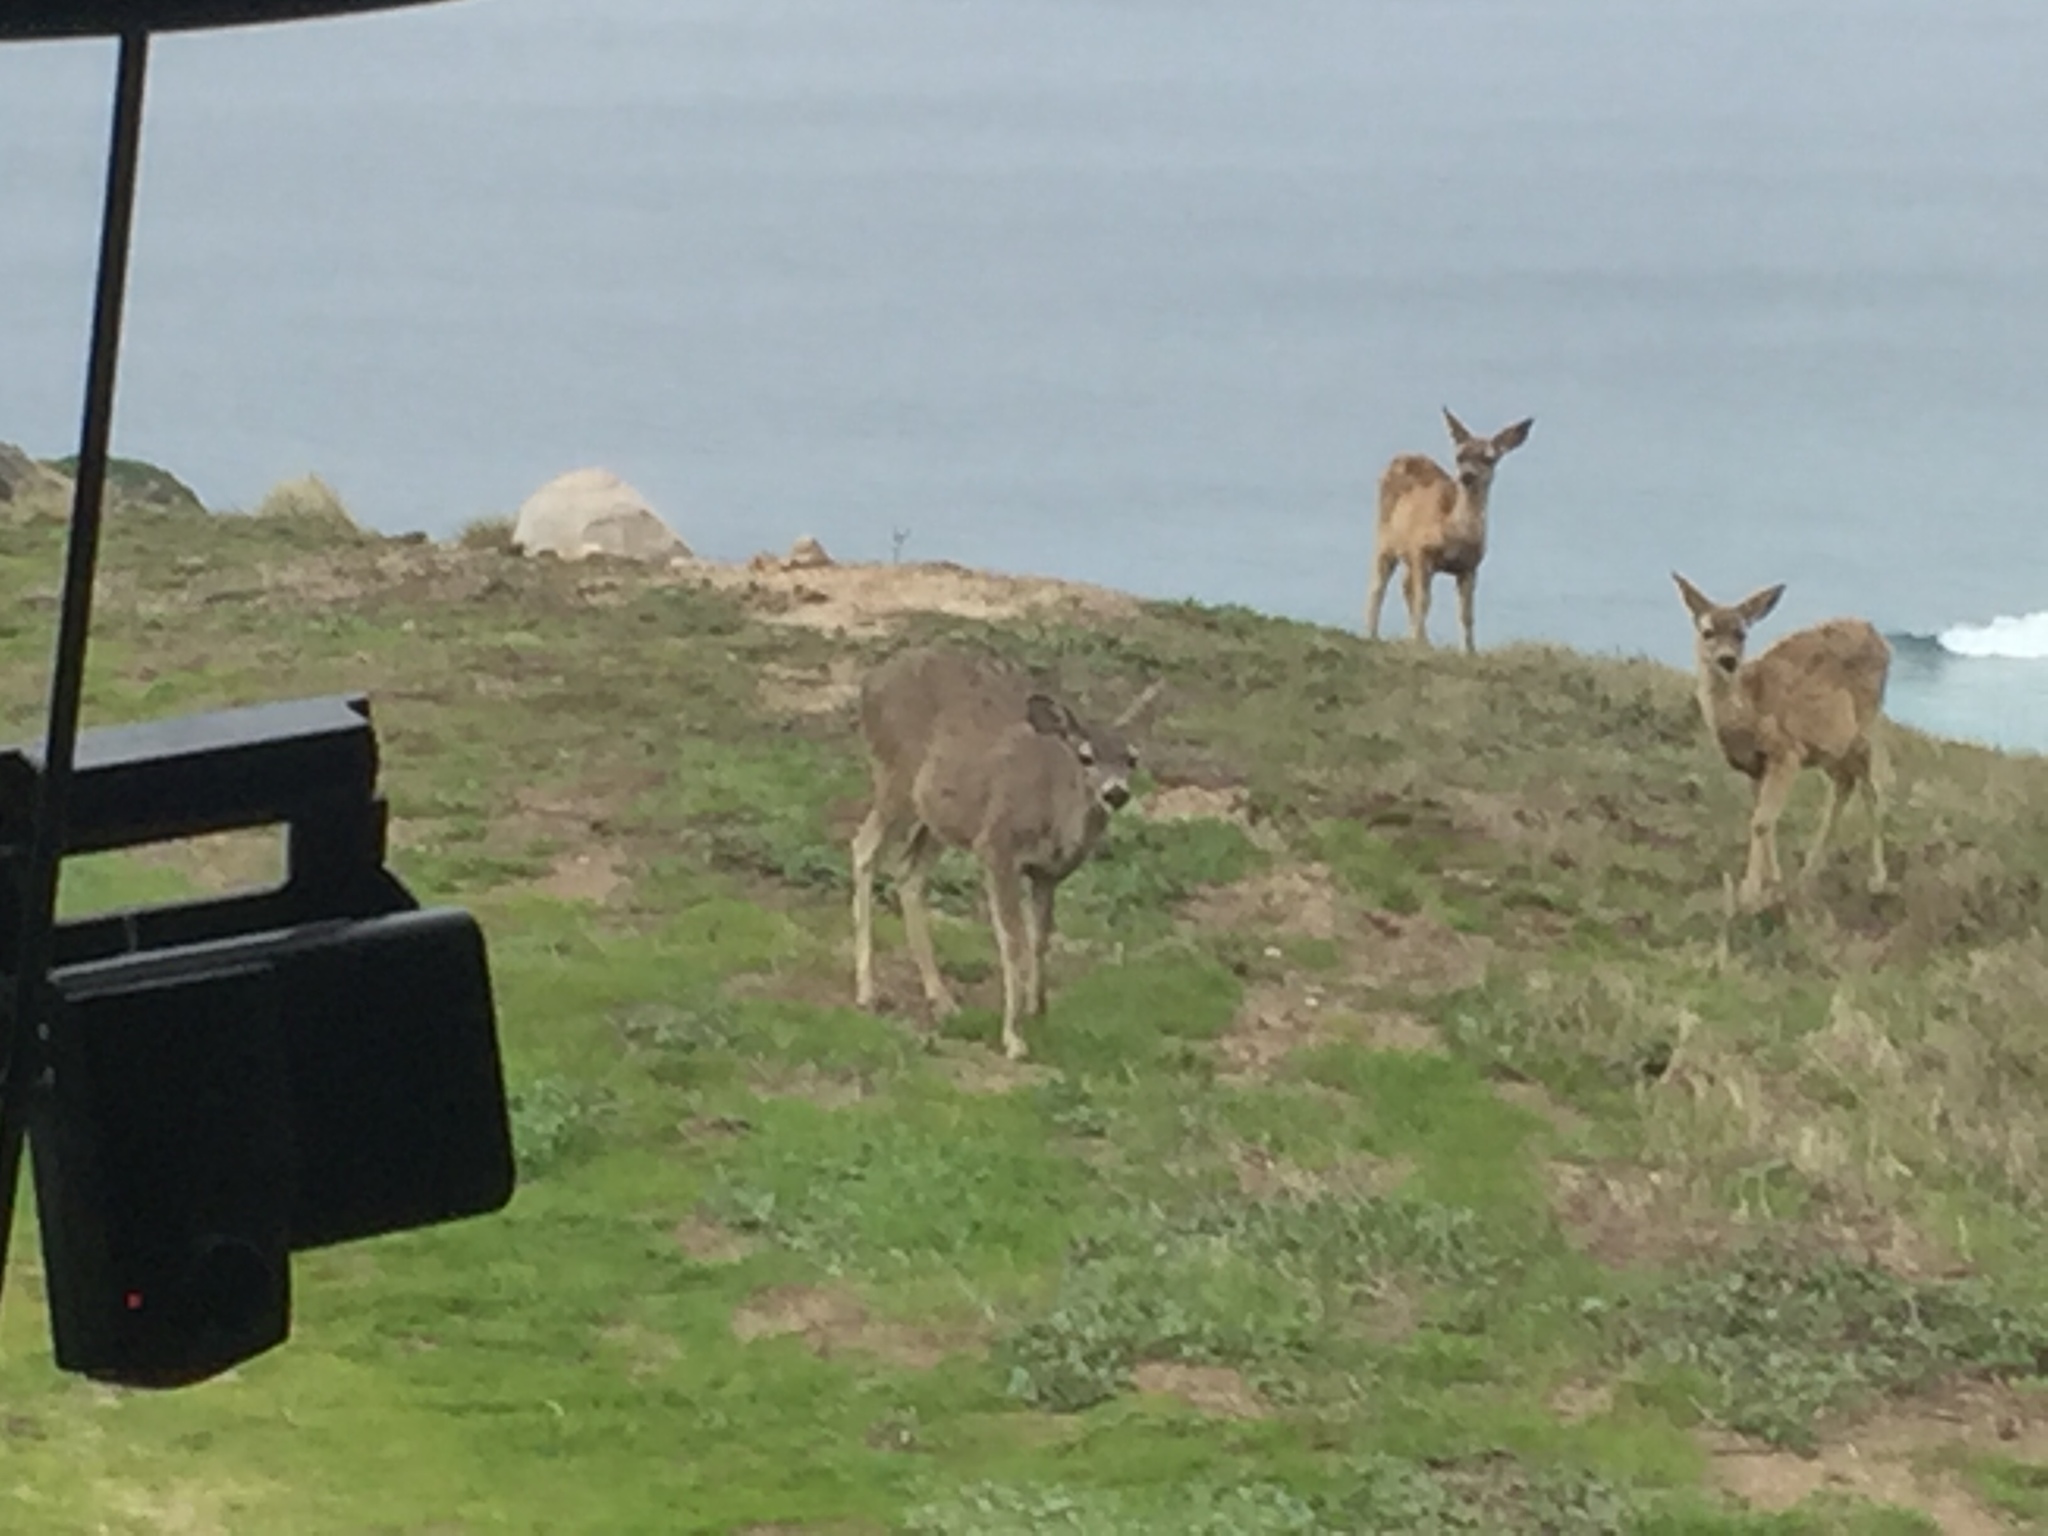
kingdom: Animalia
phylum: Chordata
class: Mammalia
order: Artiodactyla
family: Cervidae
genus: Odocoileus
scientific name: Odocoileus hemionus
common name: Mule deer
